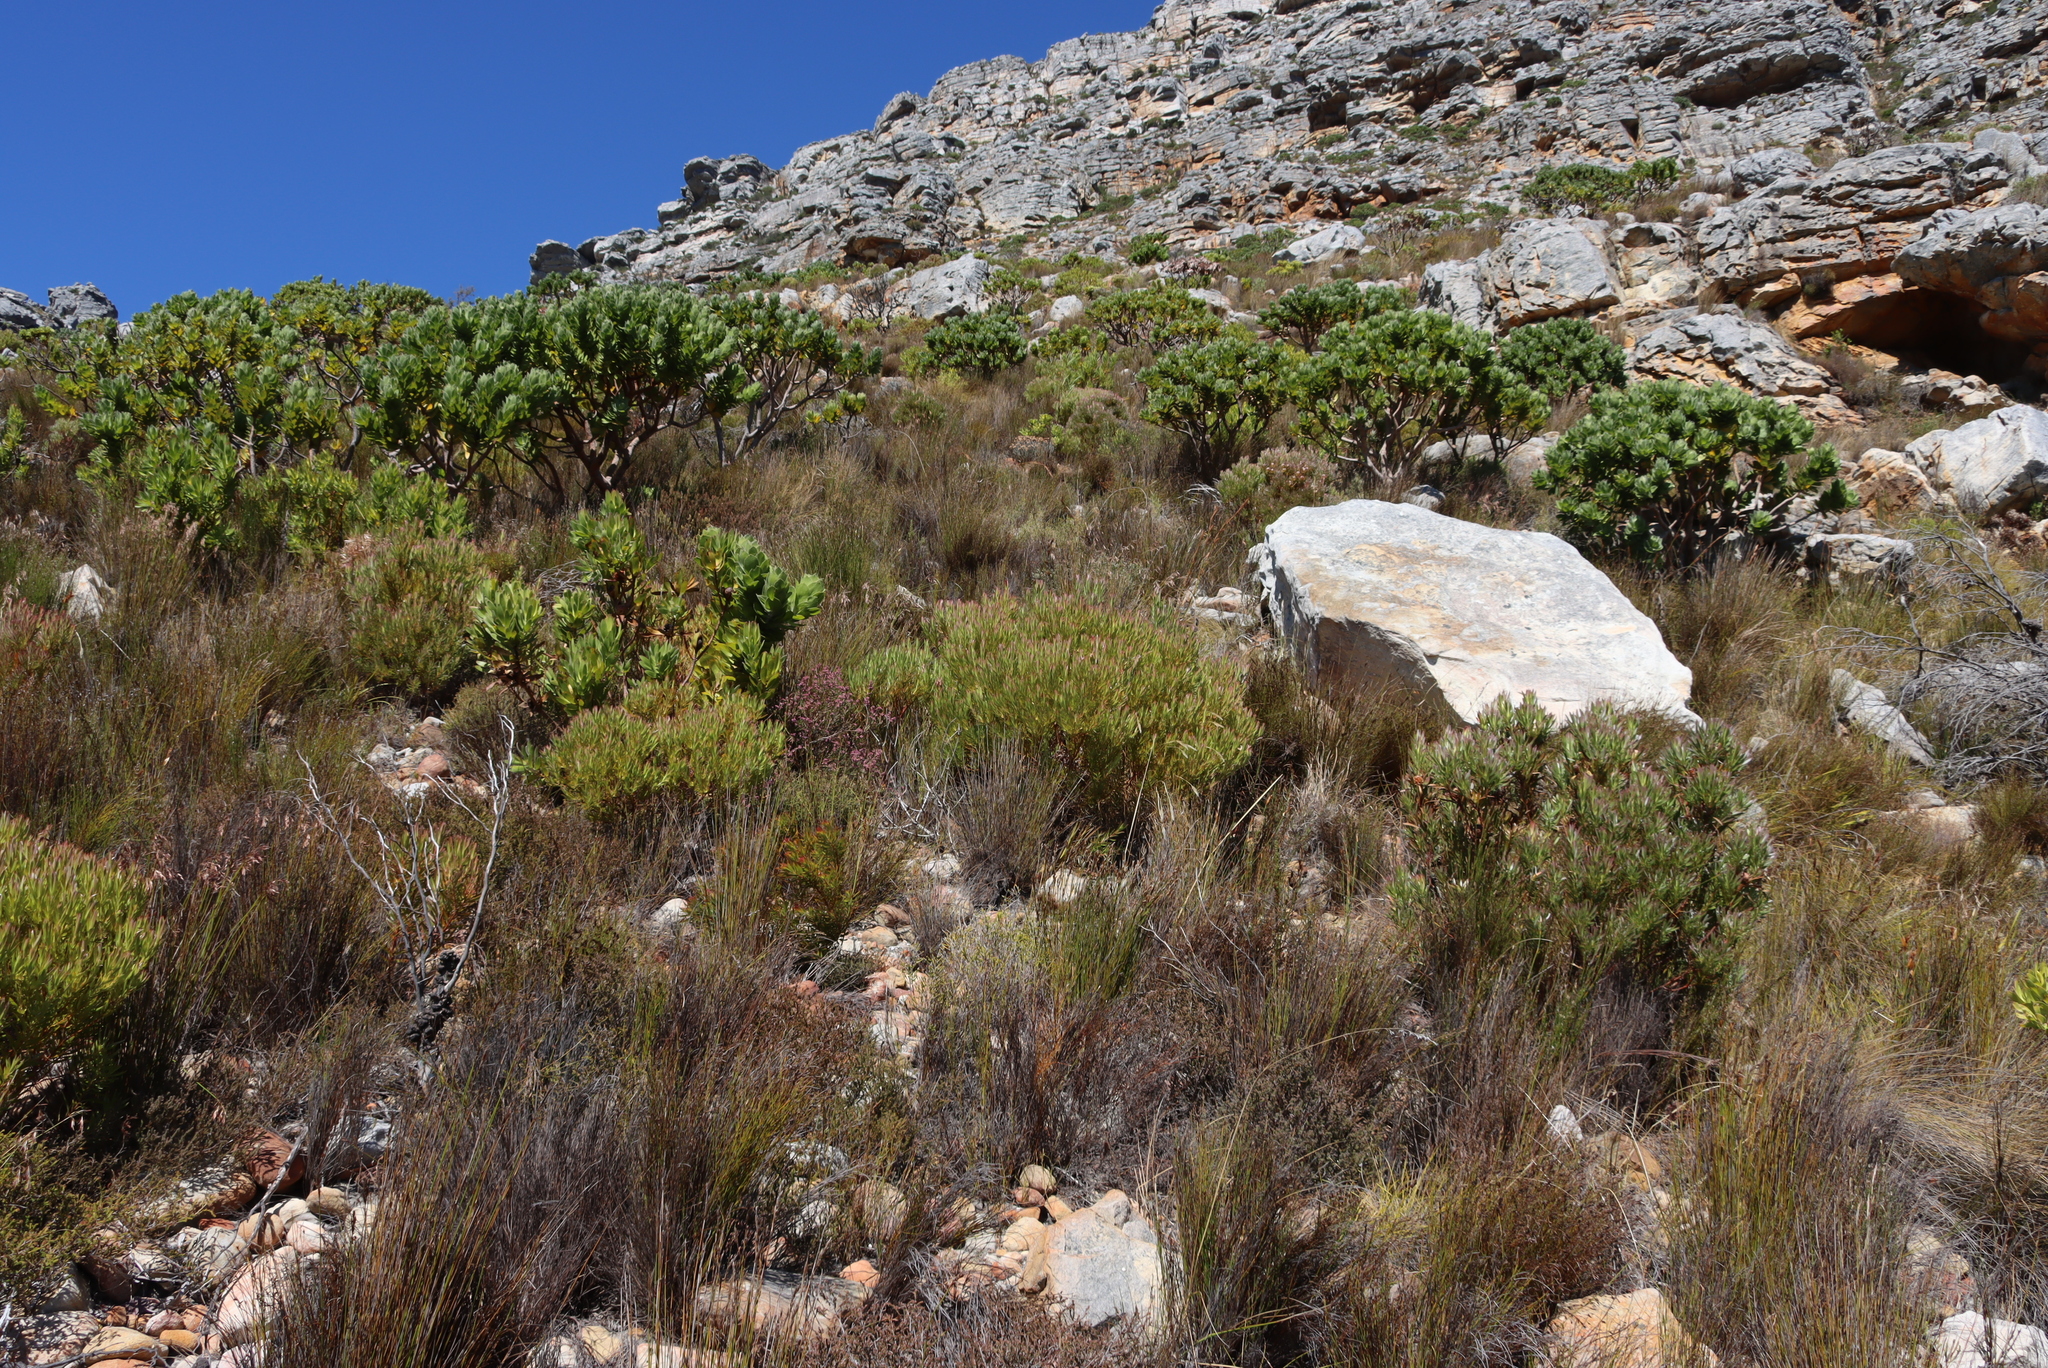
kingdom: Plantae
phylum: Tracheophyta
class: Magnoliopsida
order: Proteales
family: Proteaceae
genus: Leucospermum
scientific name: Leucospermum conocarpodendron
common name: Tree pincushion
